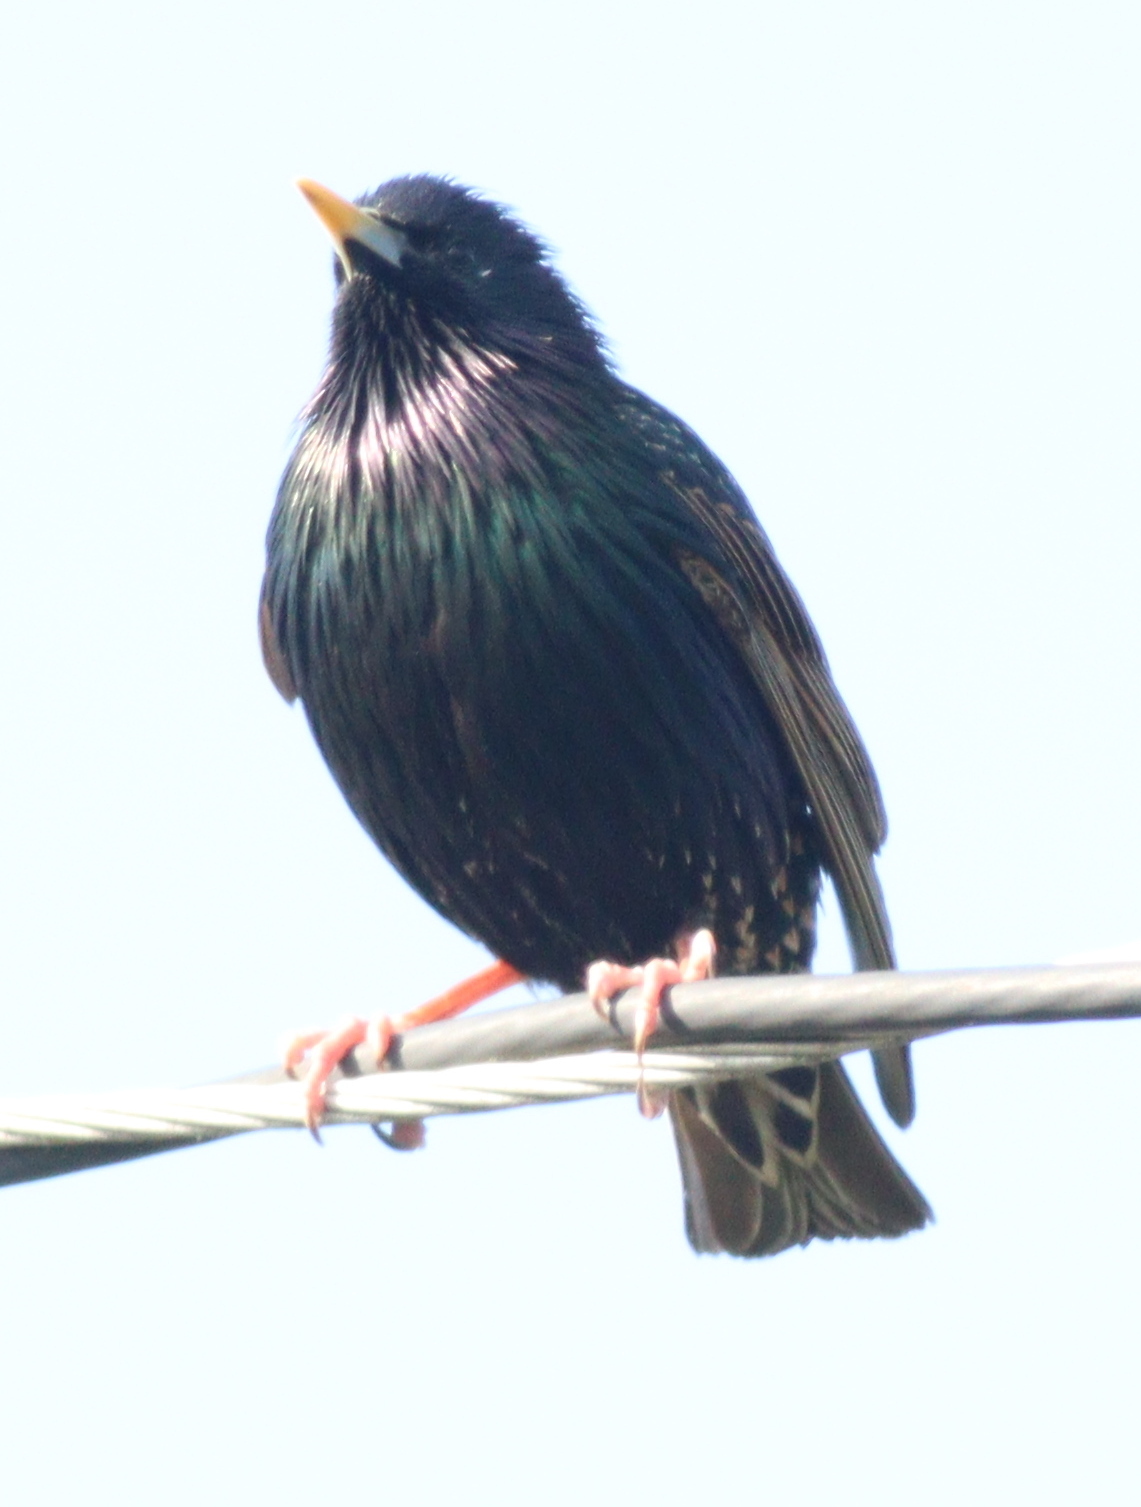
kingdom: Animalia
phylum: Chordata
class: Aves
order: Passeriformes
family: Sturnidae
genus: Sturnus
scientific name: Sturnus vulgaris
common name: Common starling
